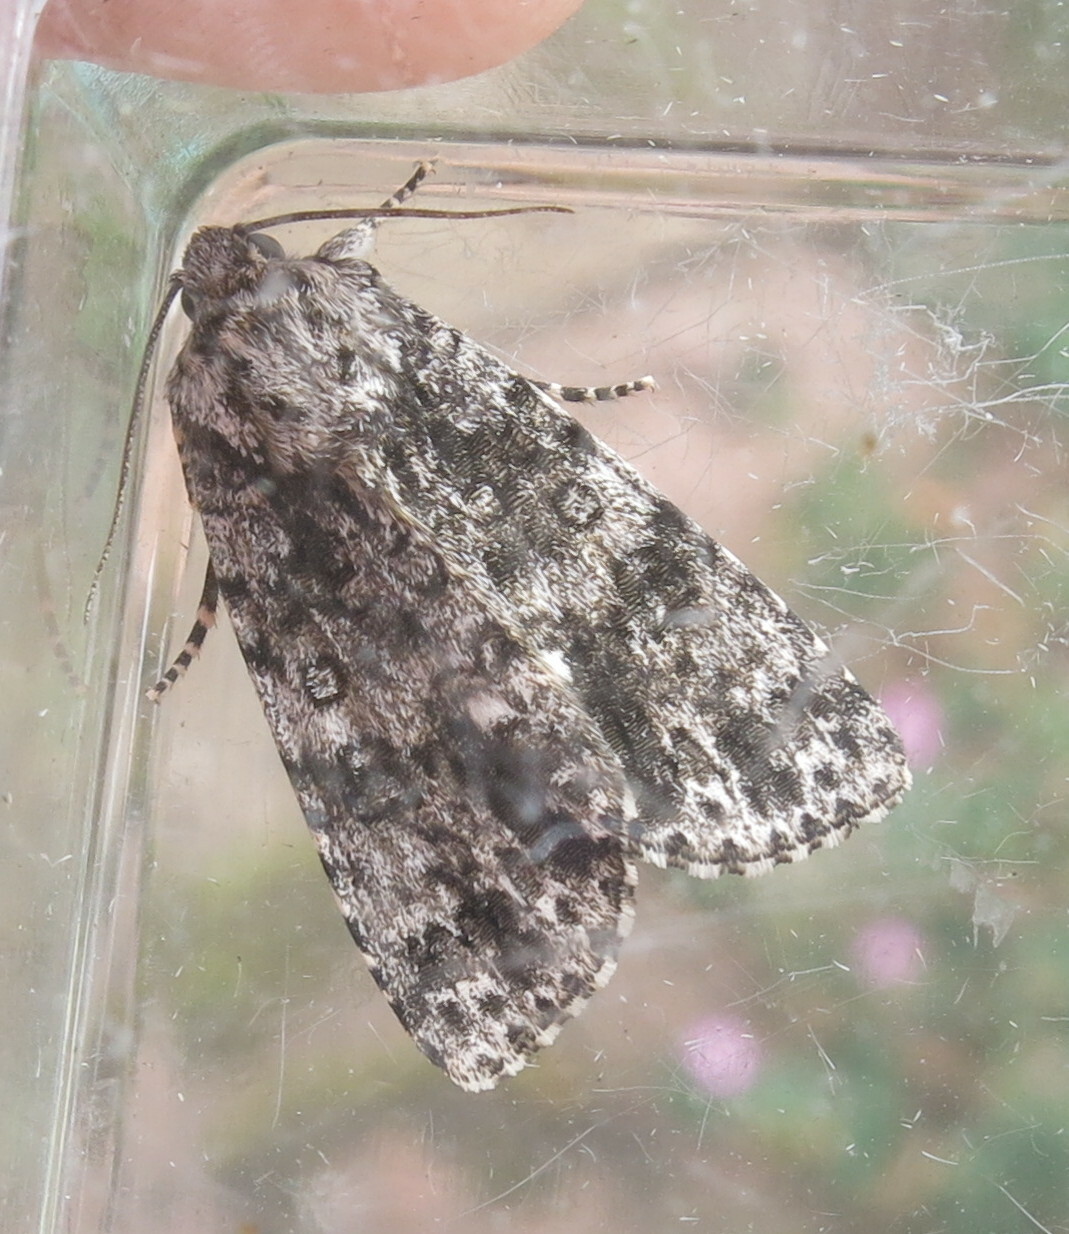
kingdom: Animalia
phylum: Arthropoda
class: Insecta
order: Lepidoptera
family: Noctuidae
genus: Acronicta
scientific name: Acronicta rumicis
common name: Knot grass
